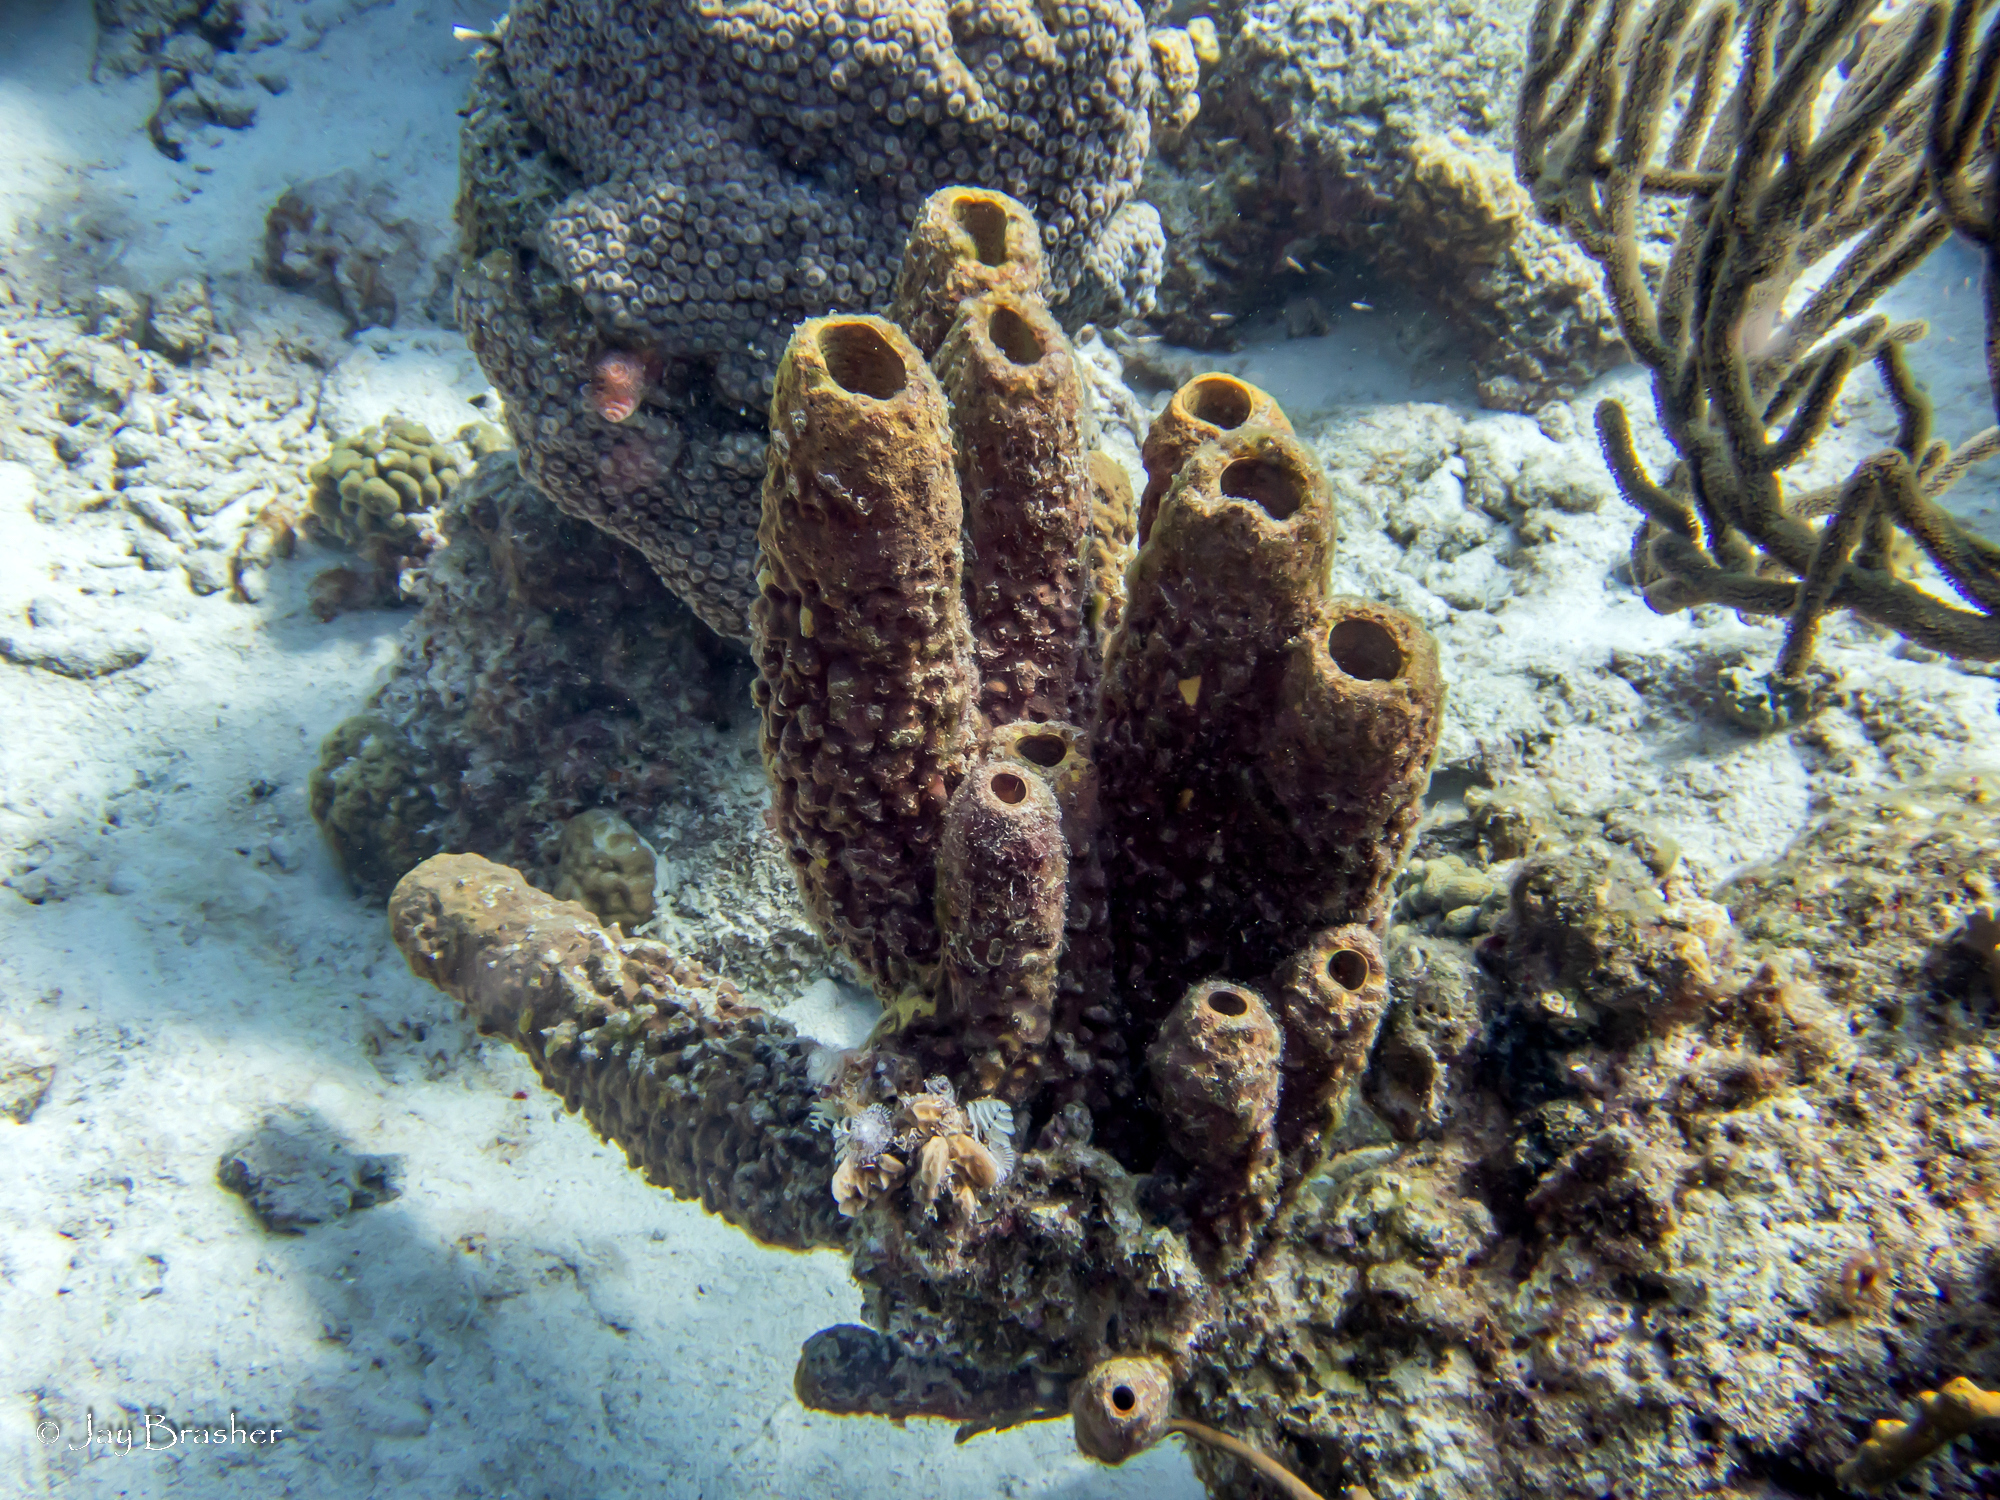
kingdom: Animalia
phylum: Porifera
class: Demospongiae
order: Verongiida
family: Aplysinidae
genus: Aplysina
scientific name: Aplysina archeri
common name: Stove-pipe sponge
